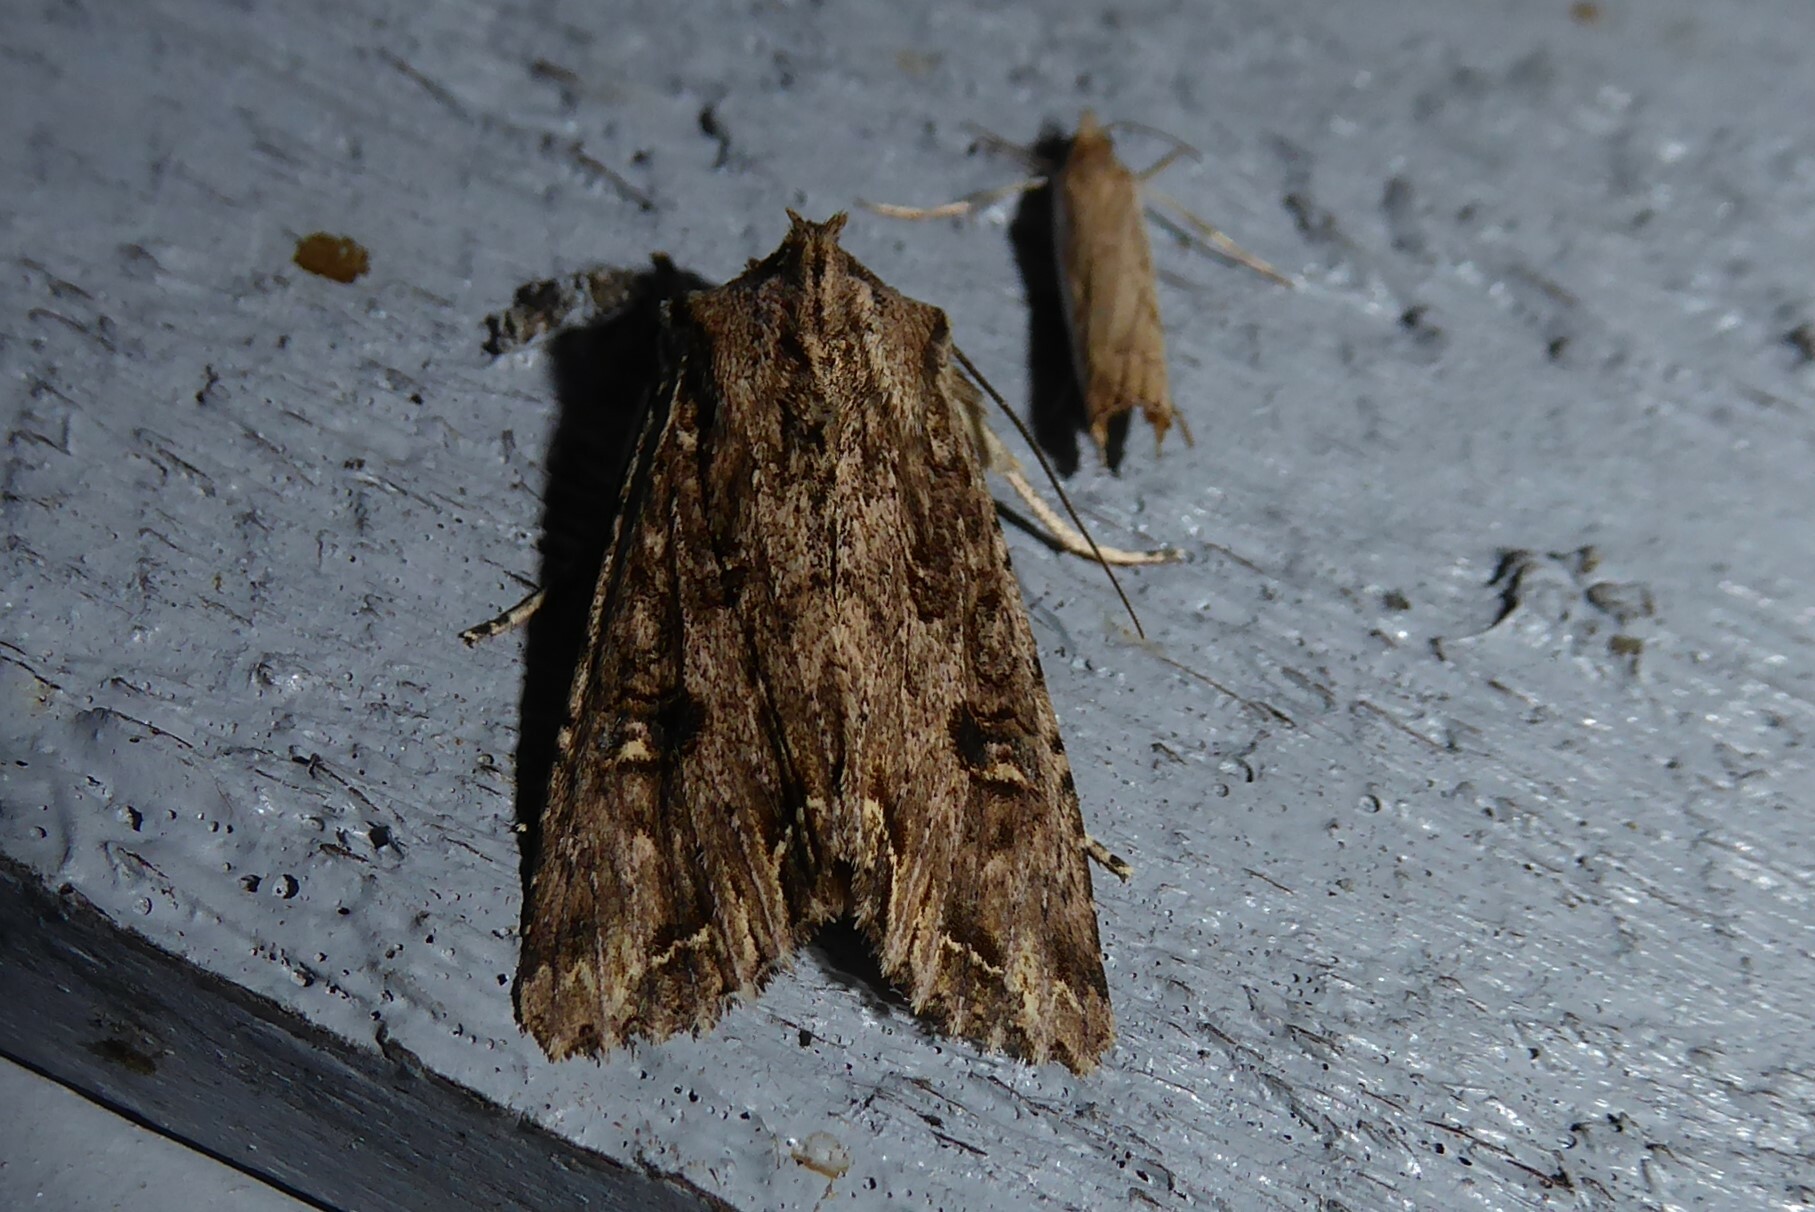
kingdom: Animalia
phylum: Arthropoda
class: Insecta
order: Lepidoptera
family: Noctuidae
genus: Ichneutica
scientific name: Ichneutica lignana
